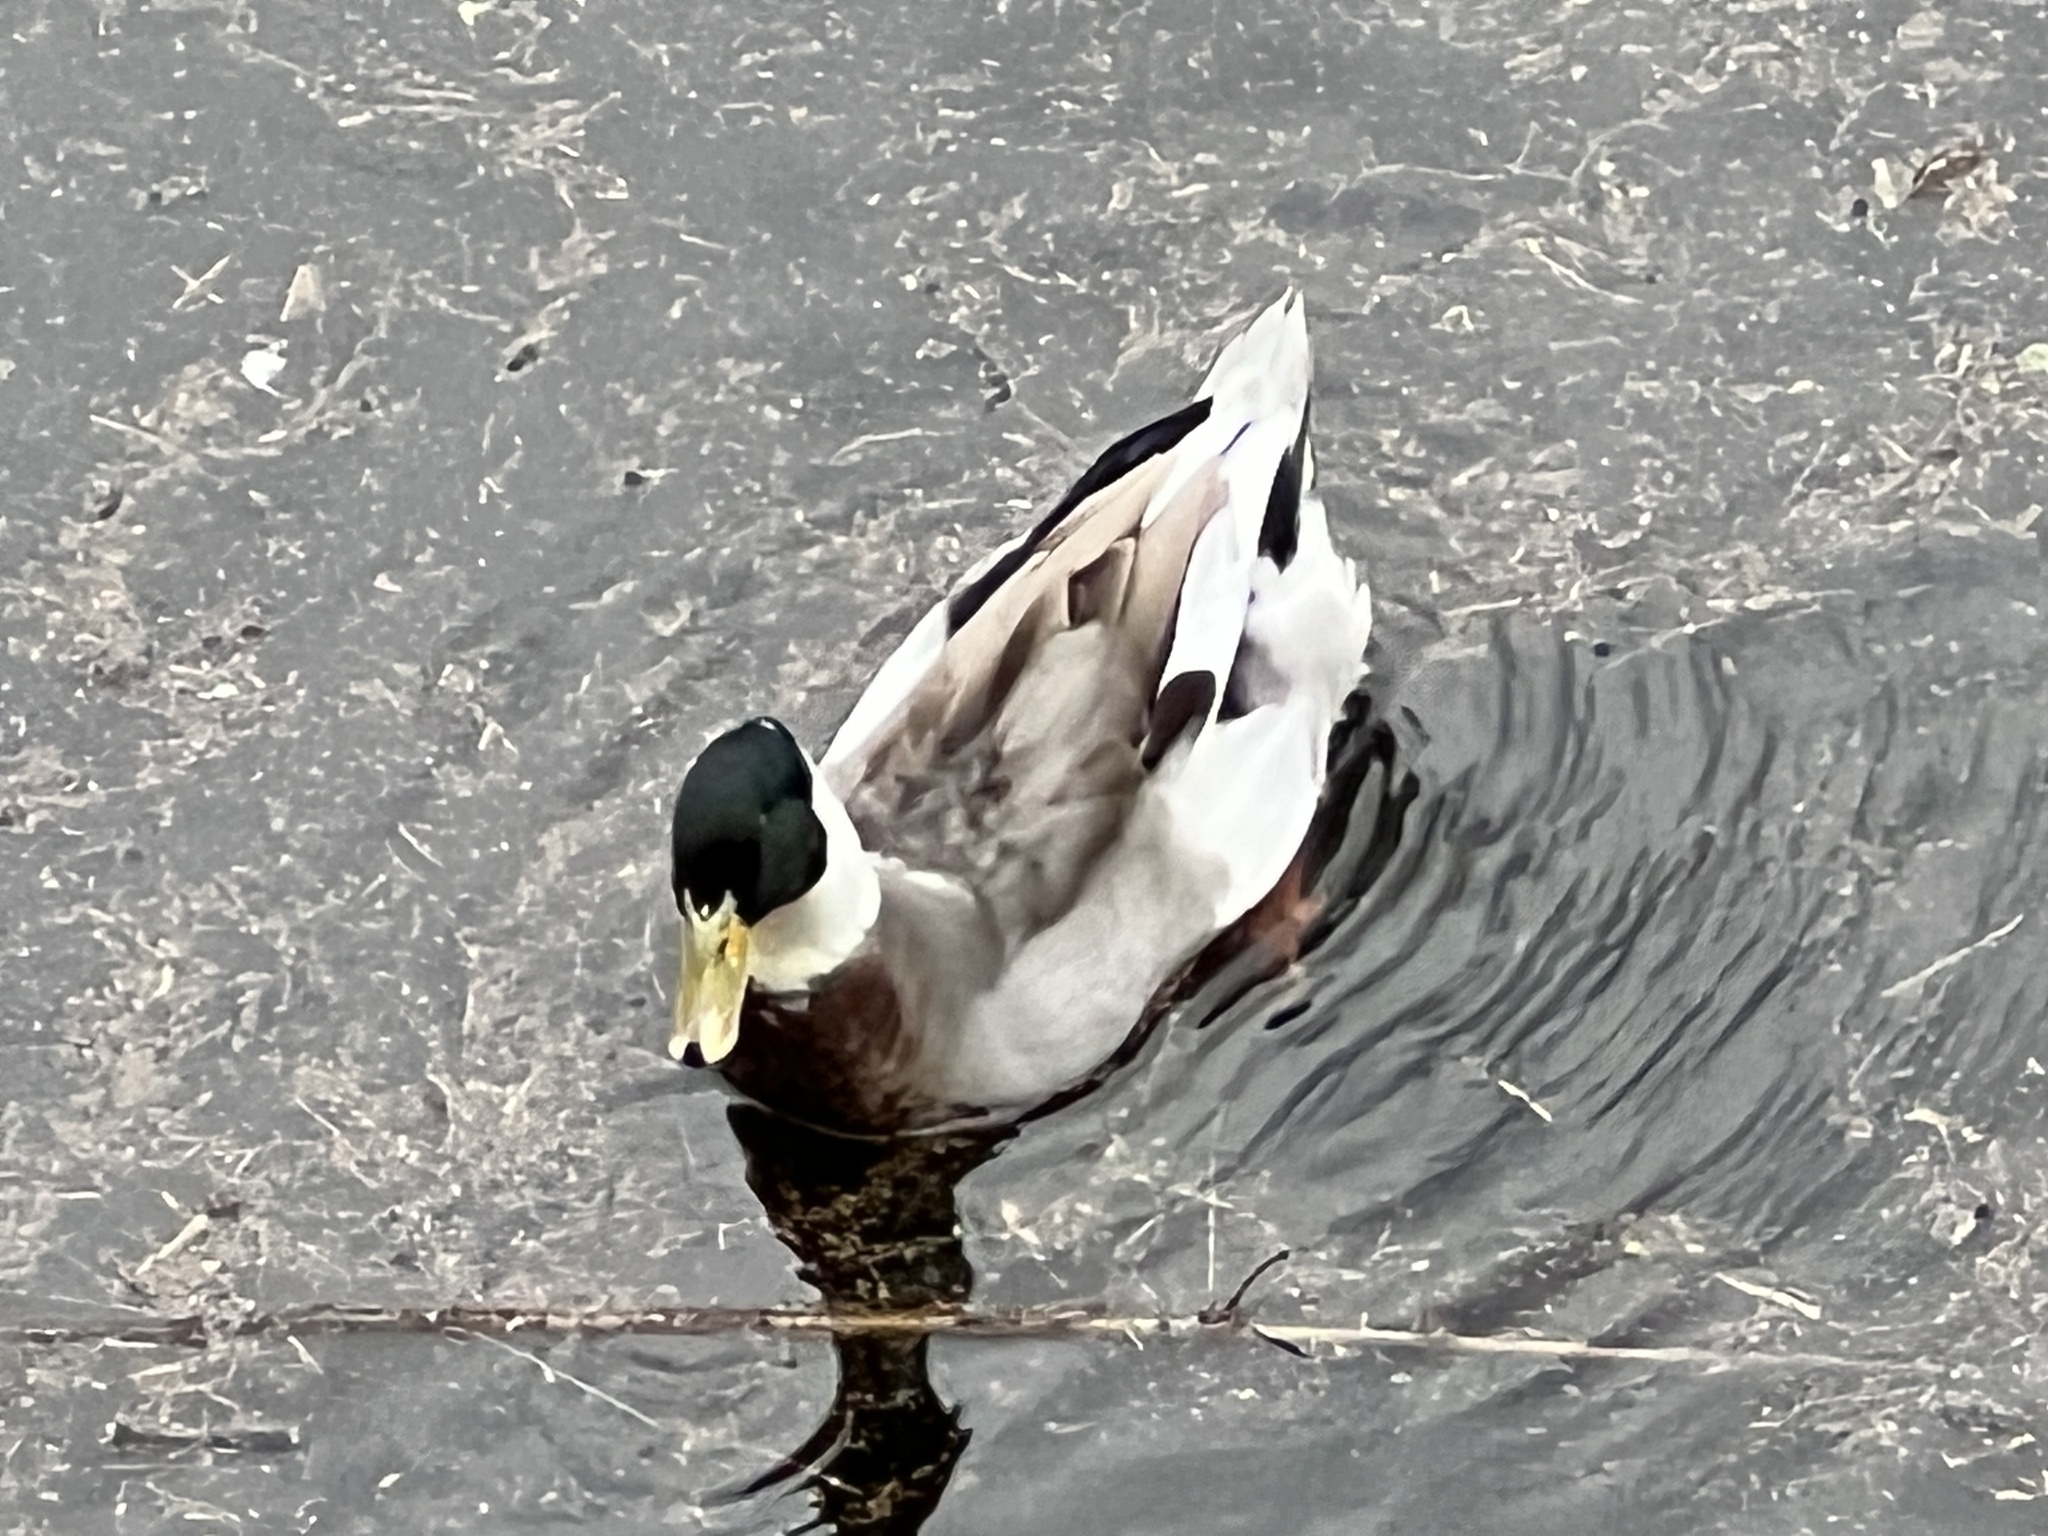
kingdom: Animalia
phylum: Chordata
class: Aves
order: Anseriformes
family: Anatidae
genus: Anas
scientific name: Anas platyrhynchos
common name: Mallard
